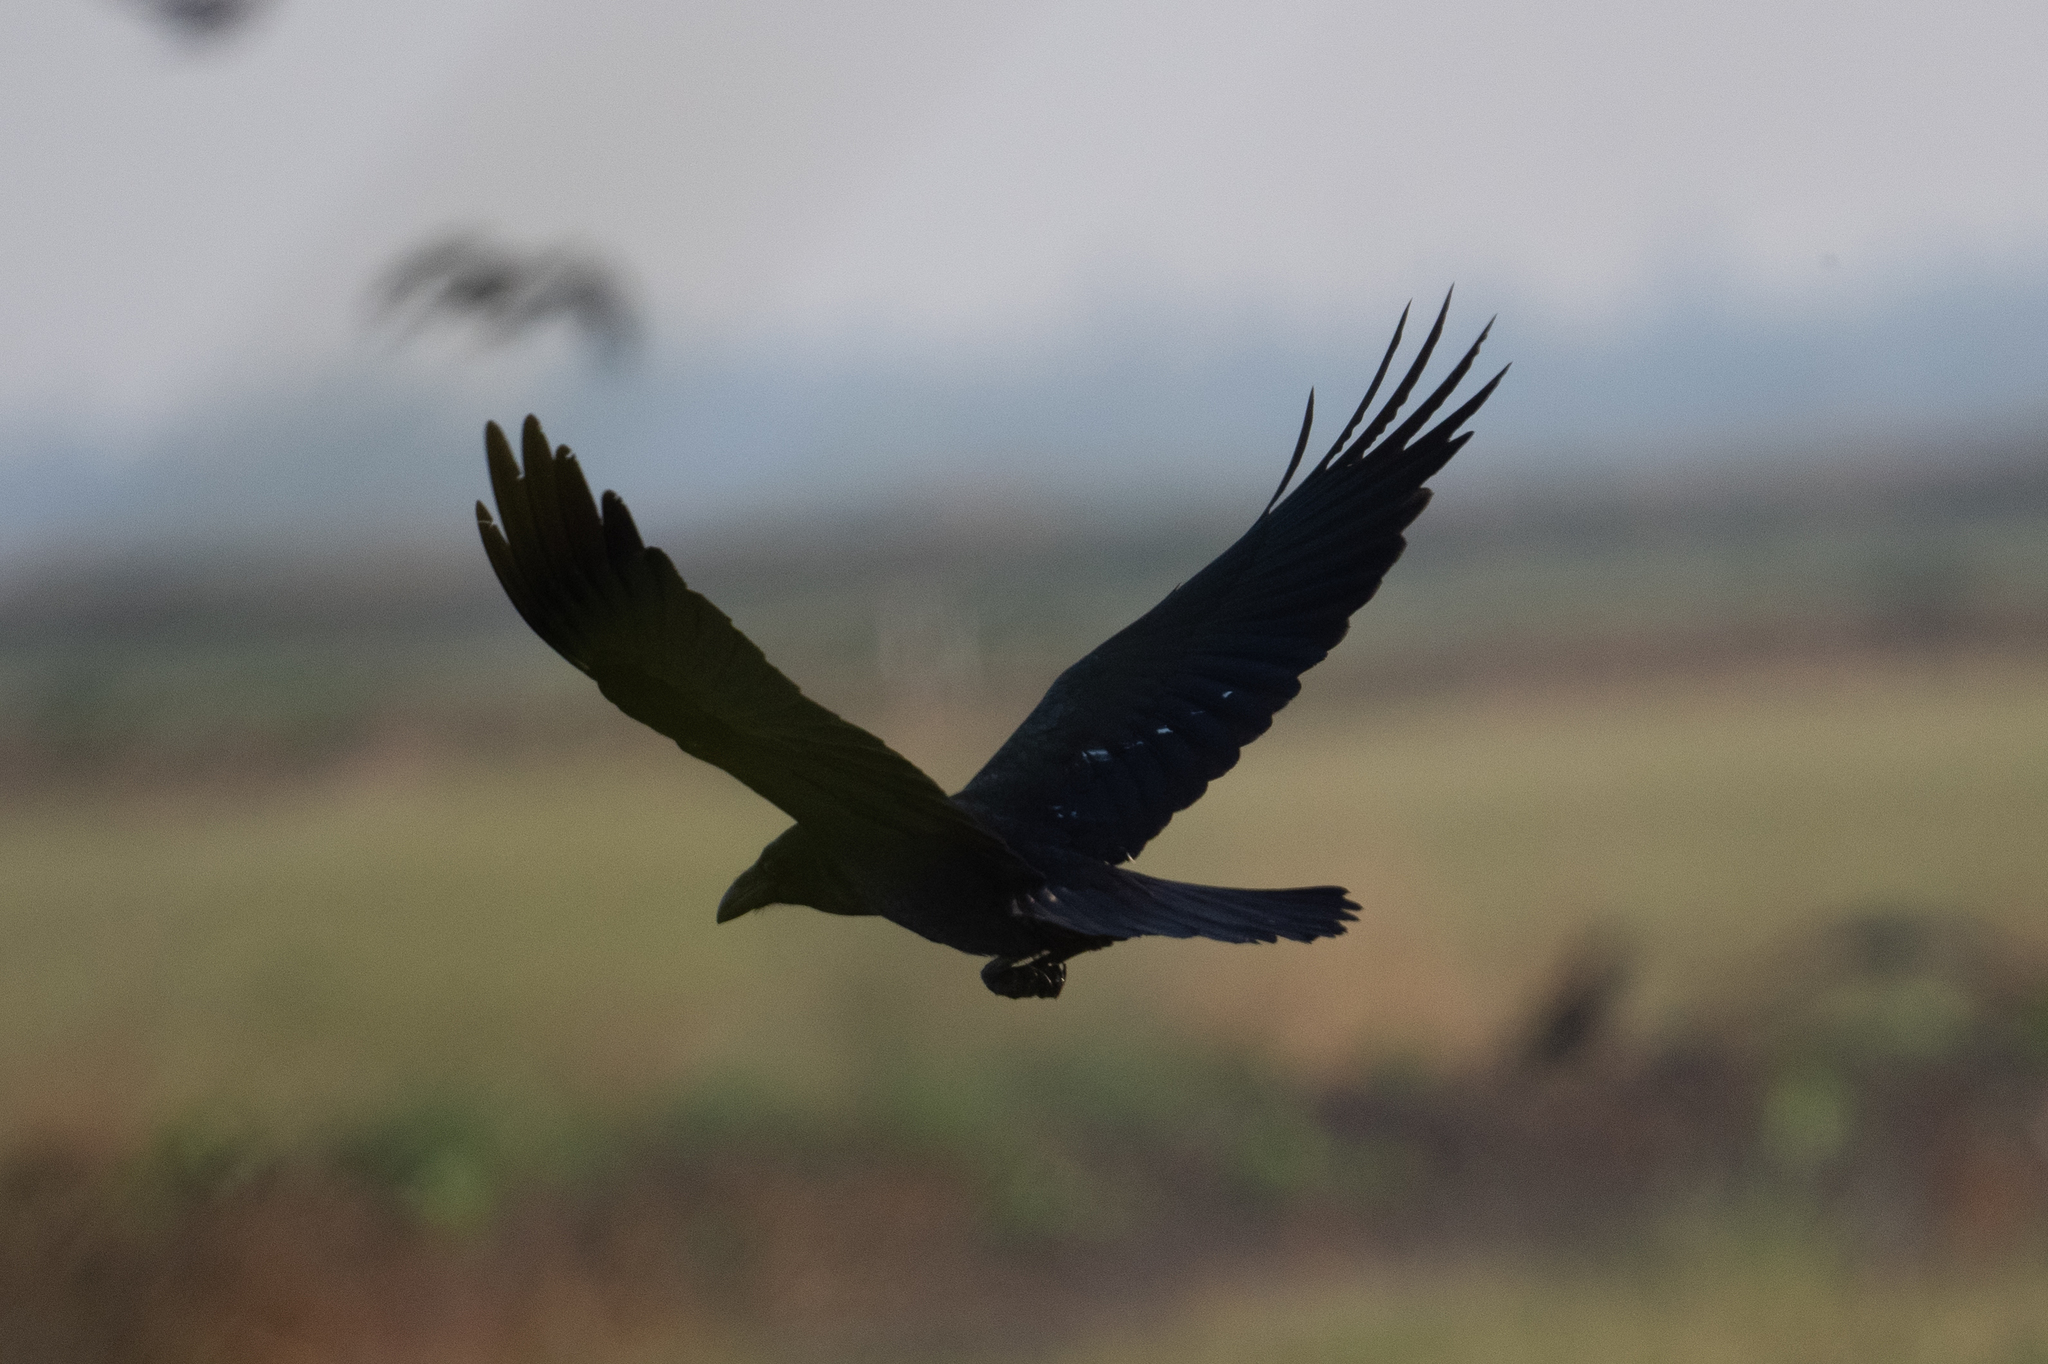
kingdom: Animalia
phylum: Chordata
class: Aves
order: Passeriformes
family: Corvidae
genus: Corvus
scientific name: Corvus corax
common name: Common raven
